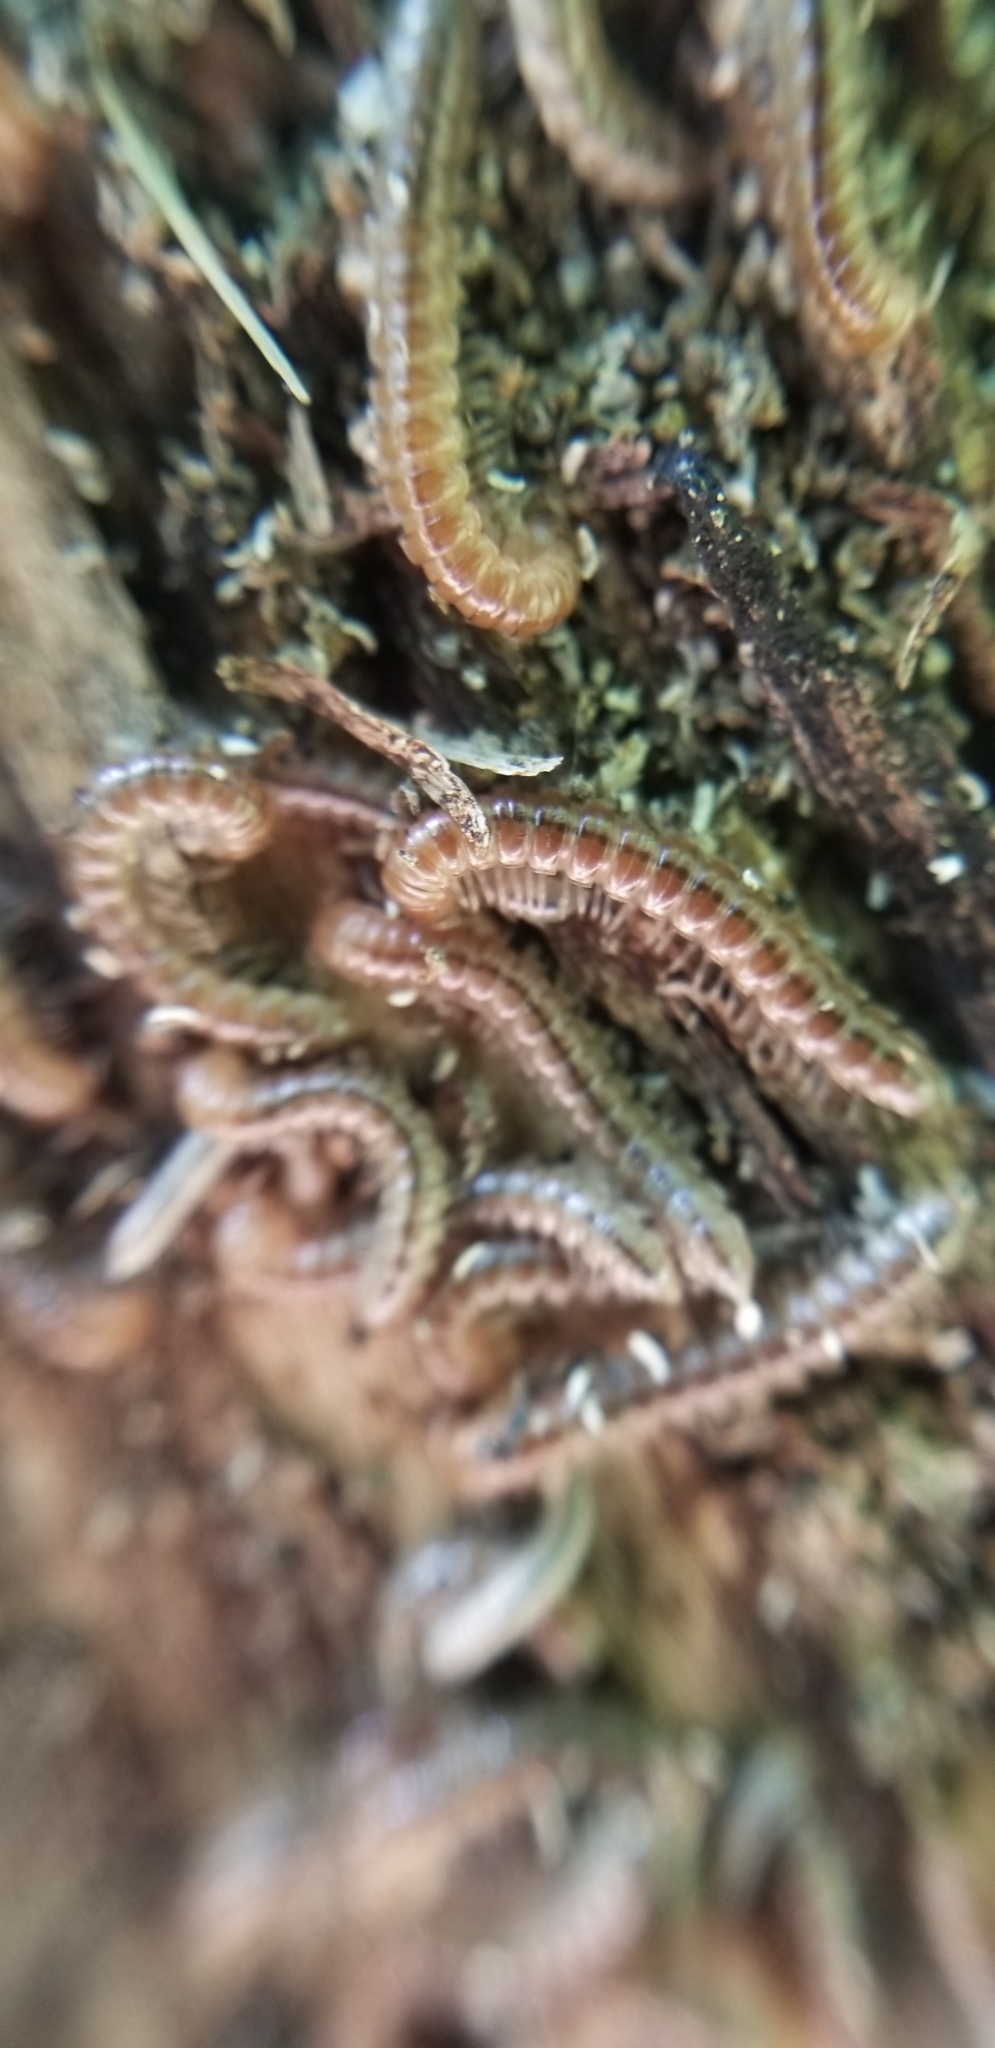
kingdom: Animalia
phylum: Arthropoda
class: Diplopoda
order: Polydesmida
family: Paradoxosomatidae
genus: Oxidus
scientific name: Oxidus gracilis
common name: Greenhouse millipede
